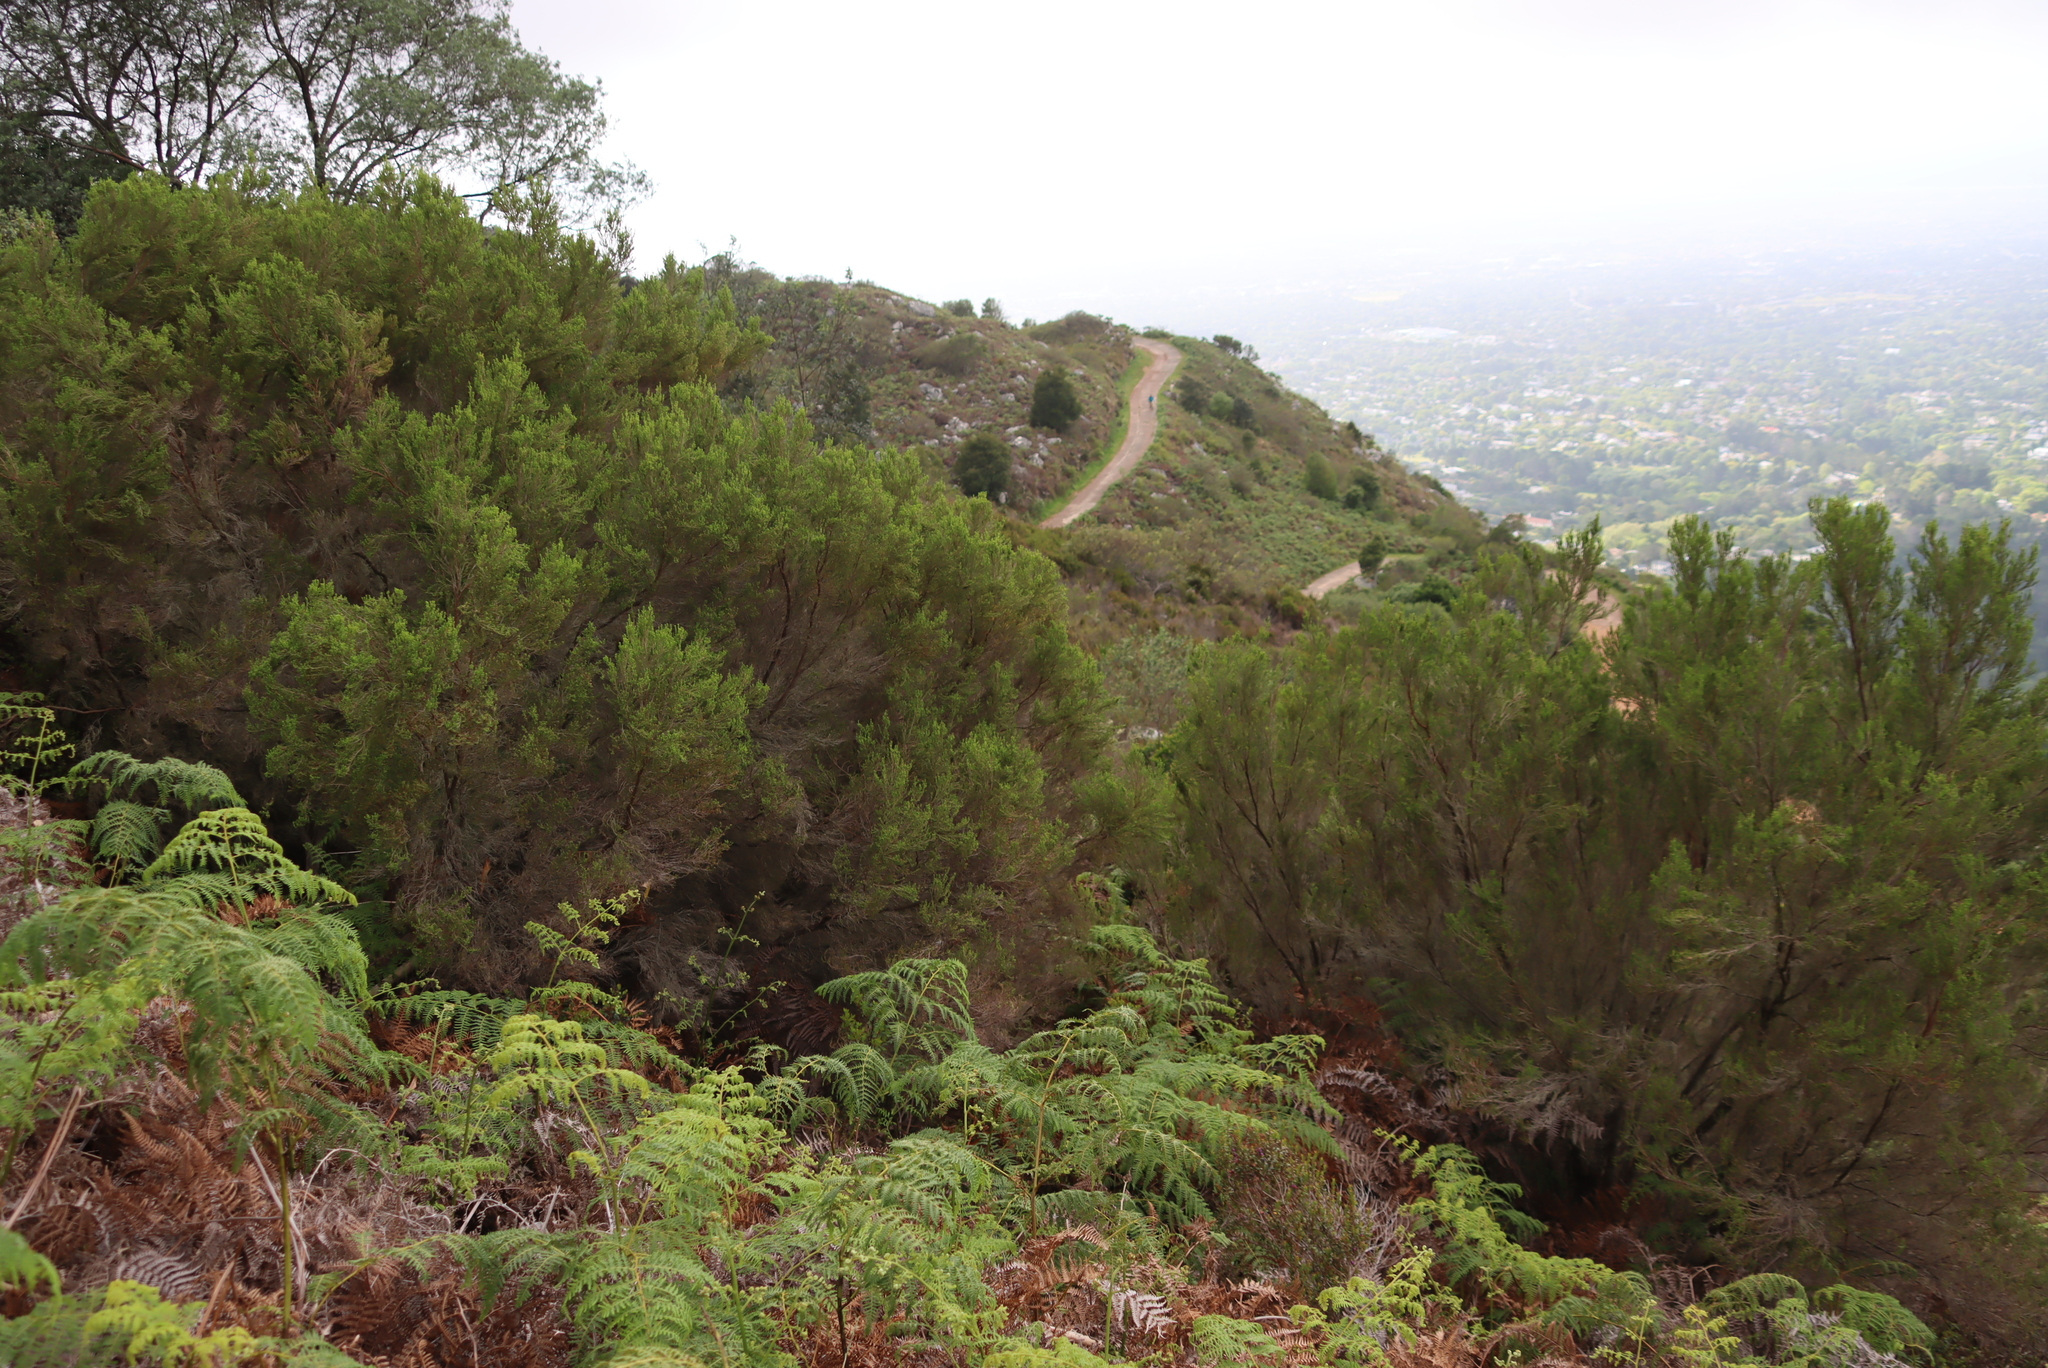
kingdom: Plantae
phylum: Tracheophyta
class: Magnoliopsida
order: Ericales
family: Ericaceae
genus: Erica
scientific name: Erica tristis
